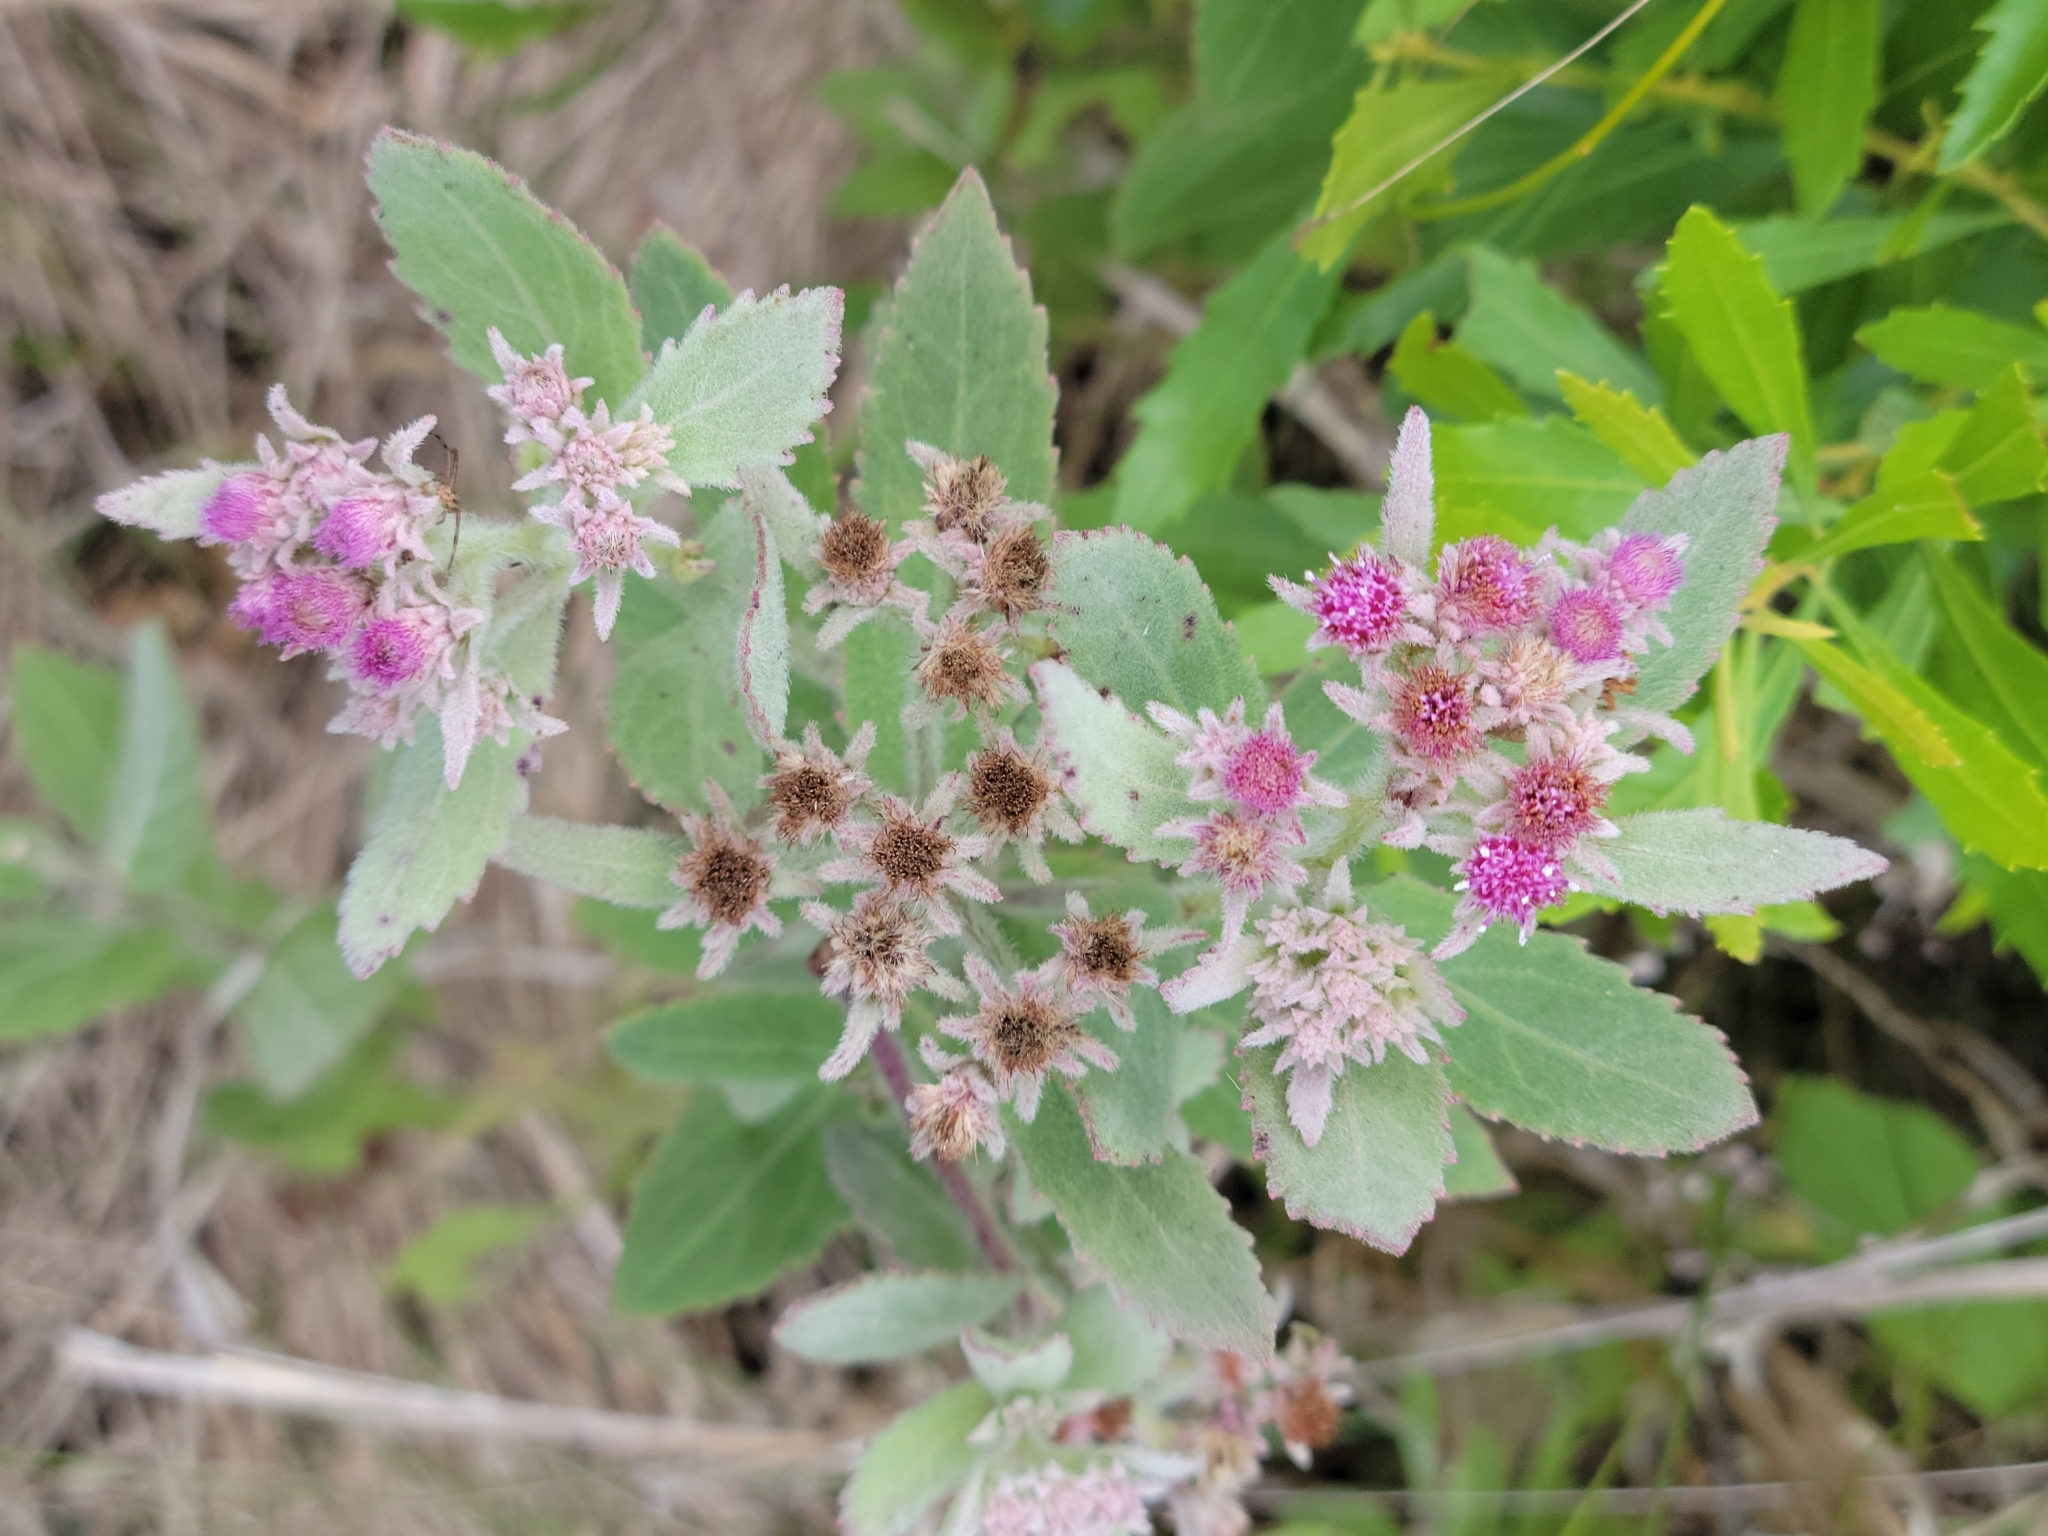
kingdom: Plantae
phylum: Tracheophyta
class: Magnoliopsida
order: Asterales
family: Asteraceae
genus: Pluchea
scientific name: Pluchea baccharis
